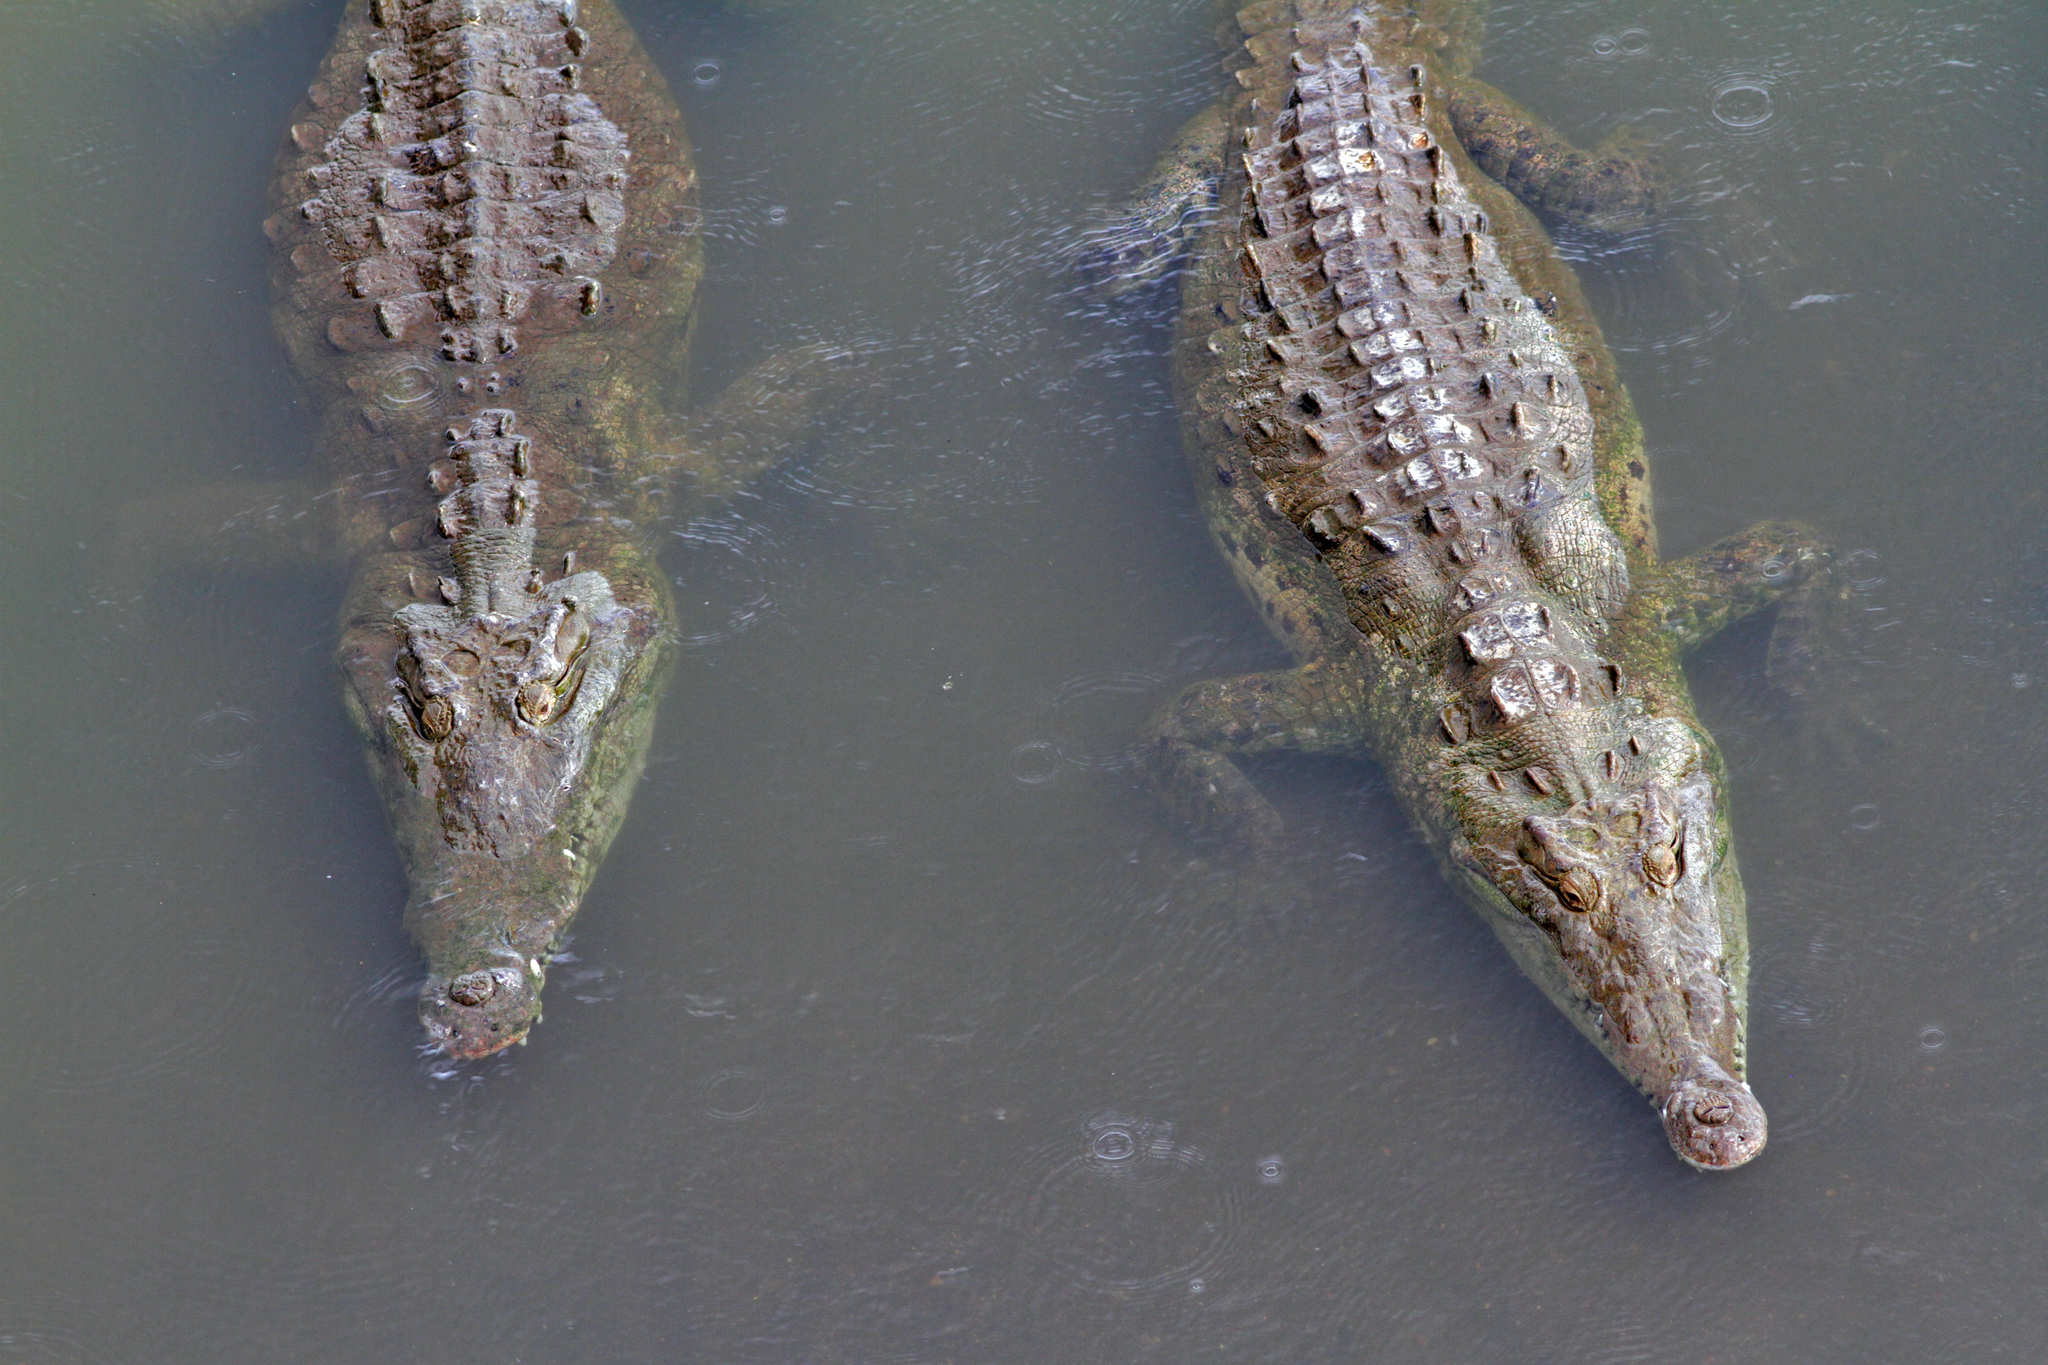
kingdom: Animalia
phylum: Chordata
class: Crocodylia
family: Crocodylidae
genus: Crocodylus
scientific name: Crocodylus acutus
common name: American crocodile
